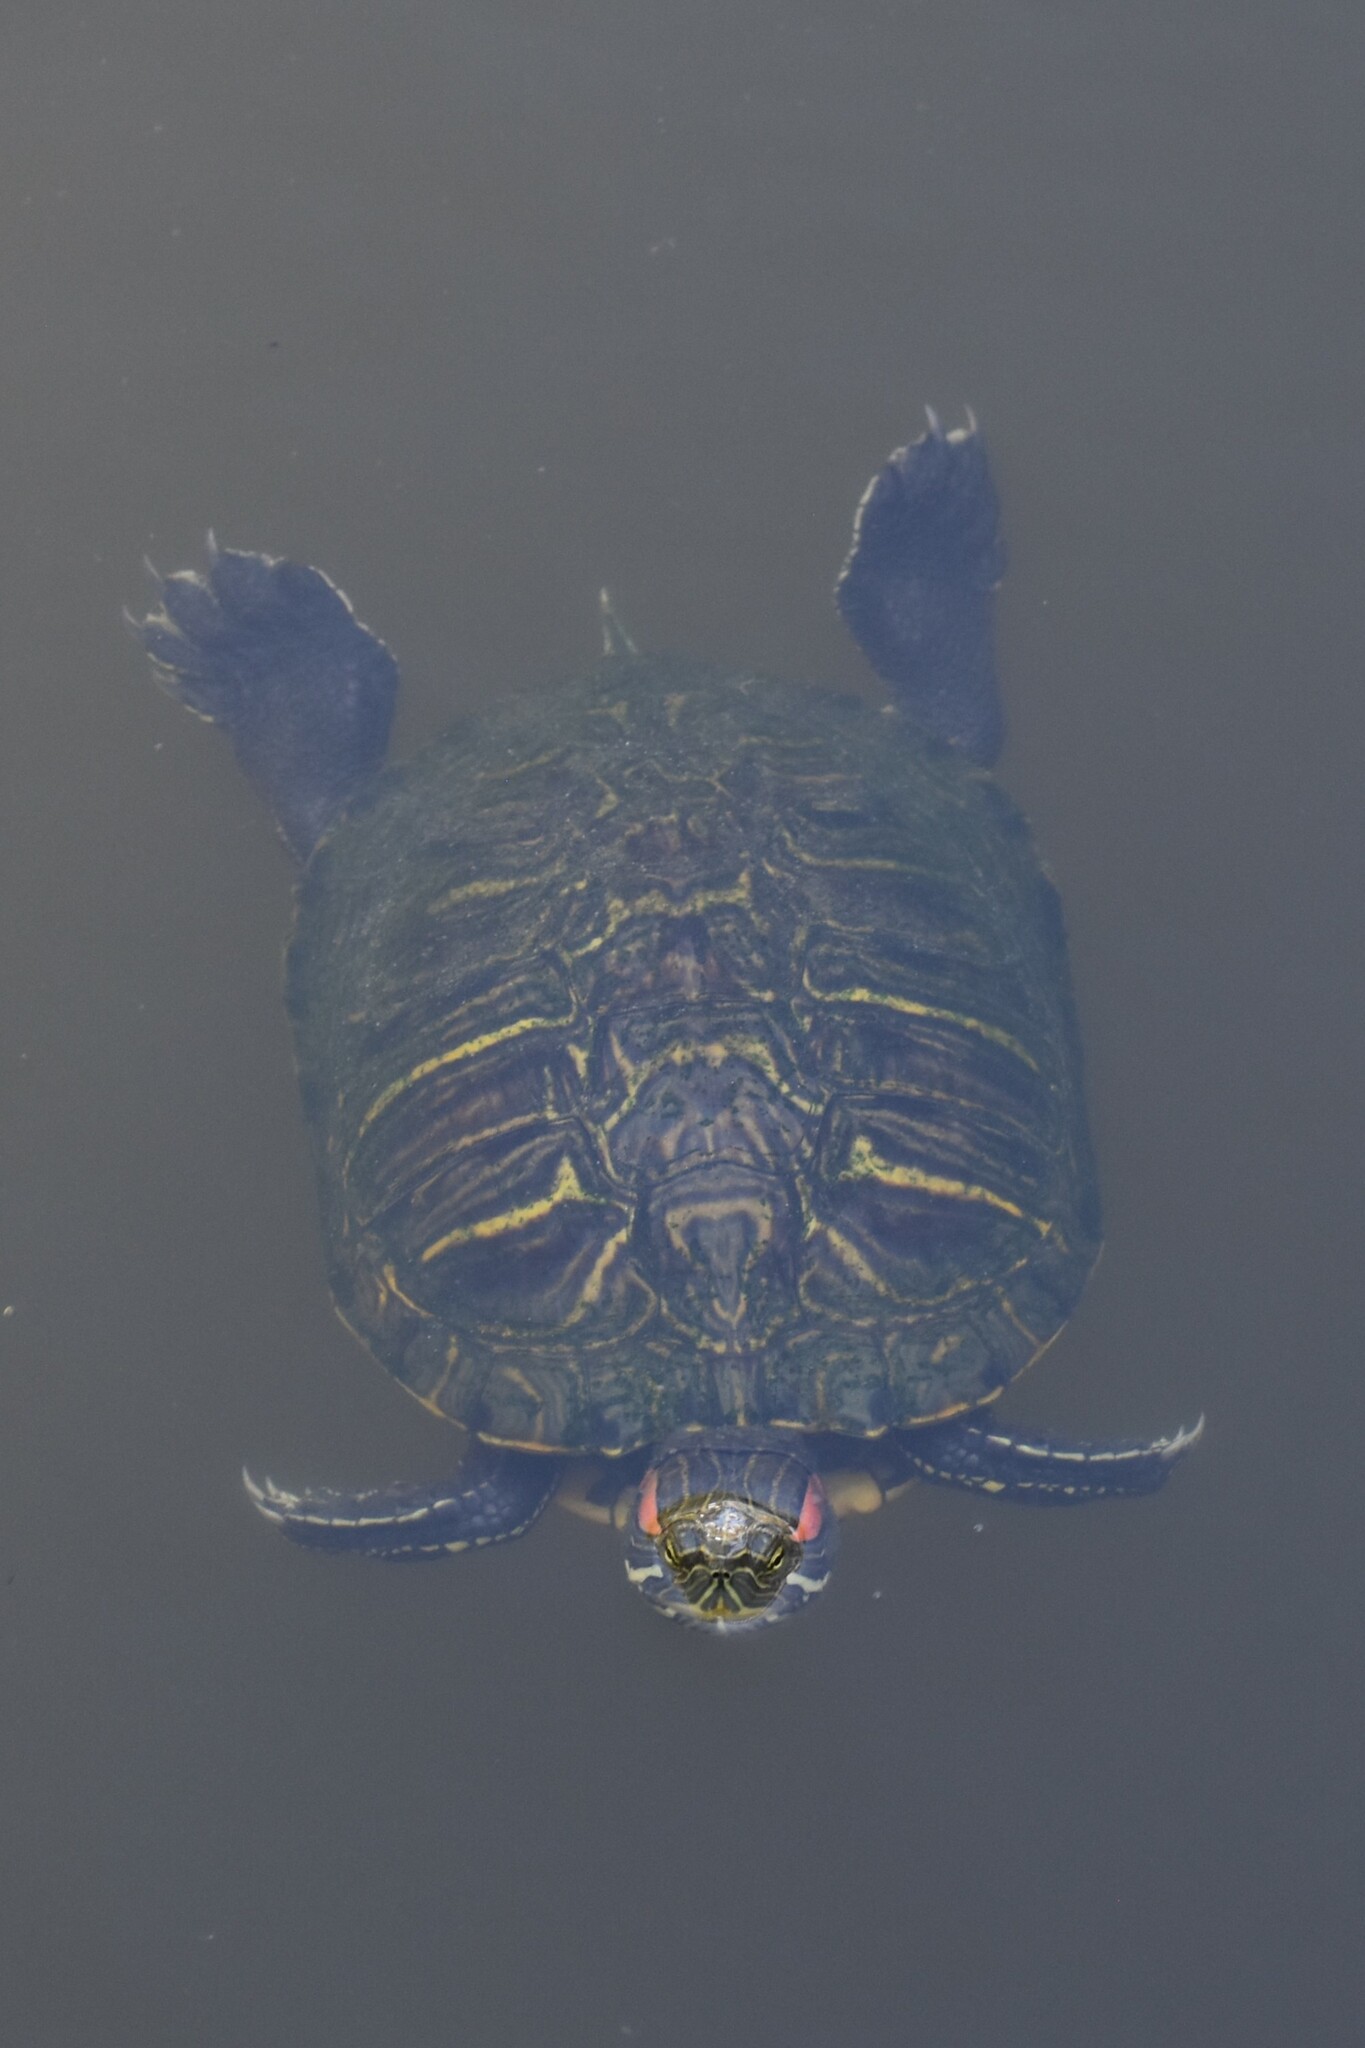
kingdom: Animalia
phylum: Chordata
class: Testudines
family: Emydidae
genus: Trachemys
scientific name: Trachemys scripta
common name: Slider
